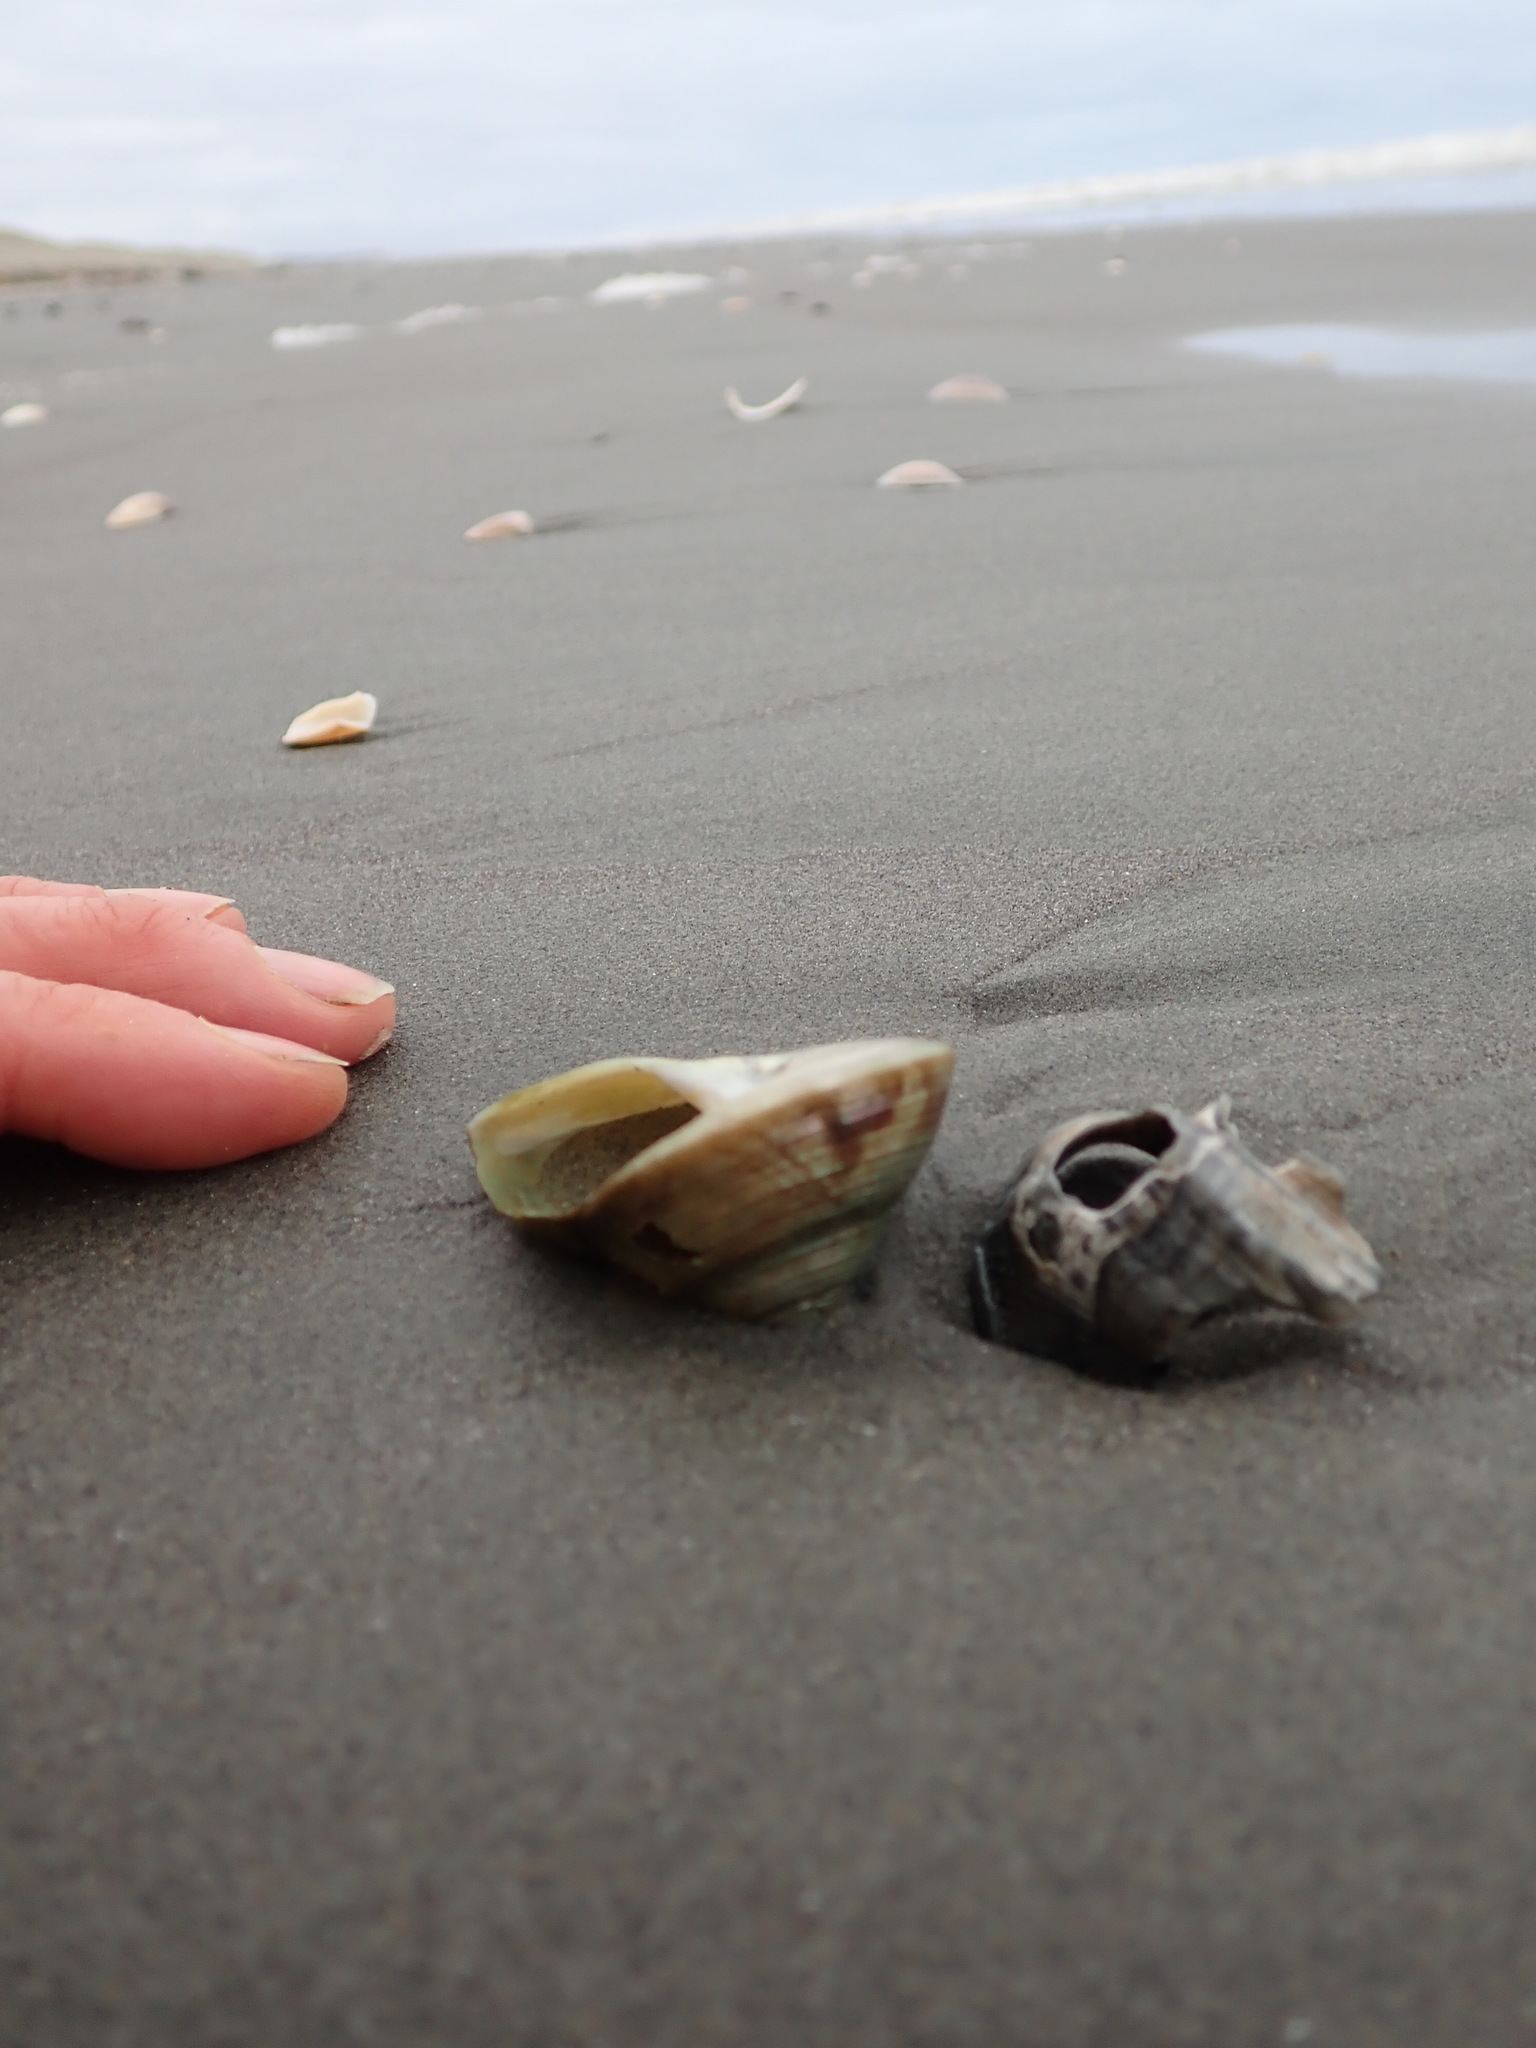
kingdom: Animalia
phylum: Mollusca
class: Gastropoda
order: Trochida
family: Calliostomatidae
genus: Maurea
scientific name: Maurea selecta
